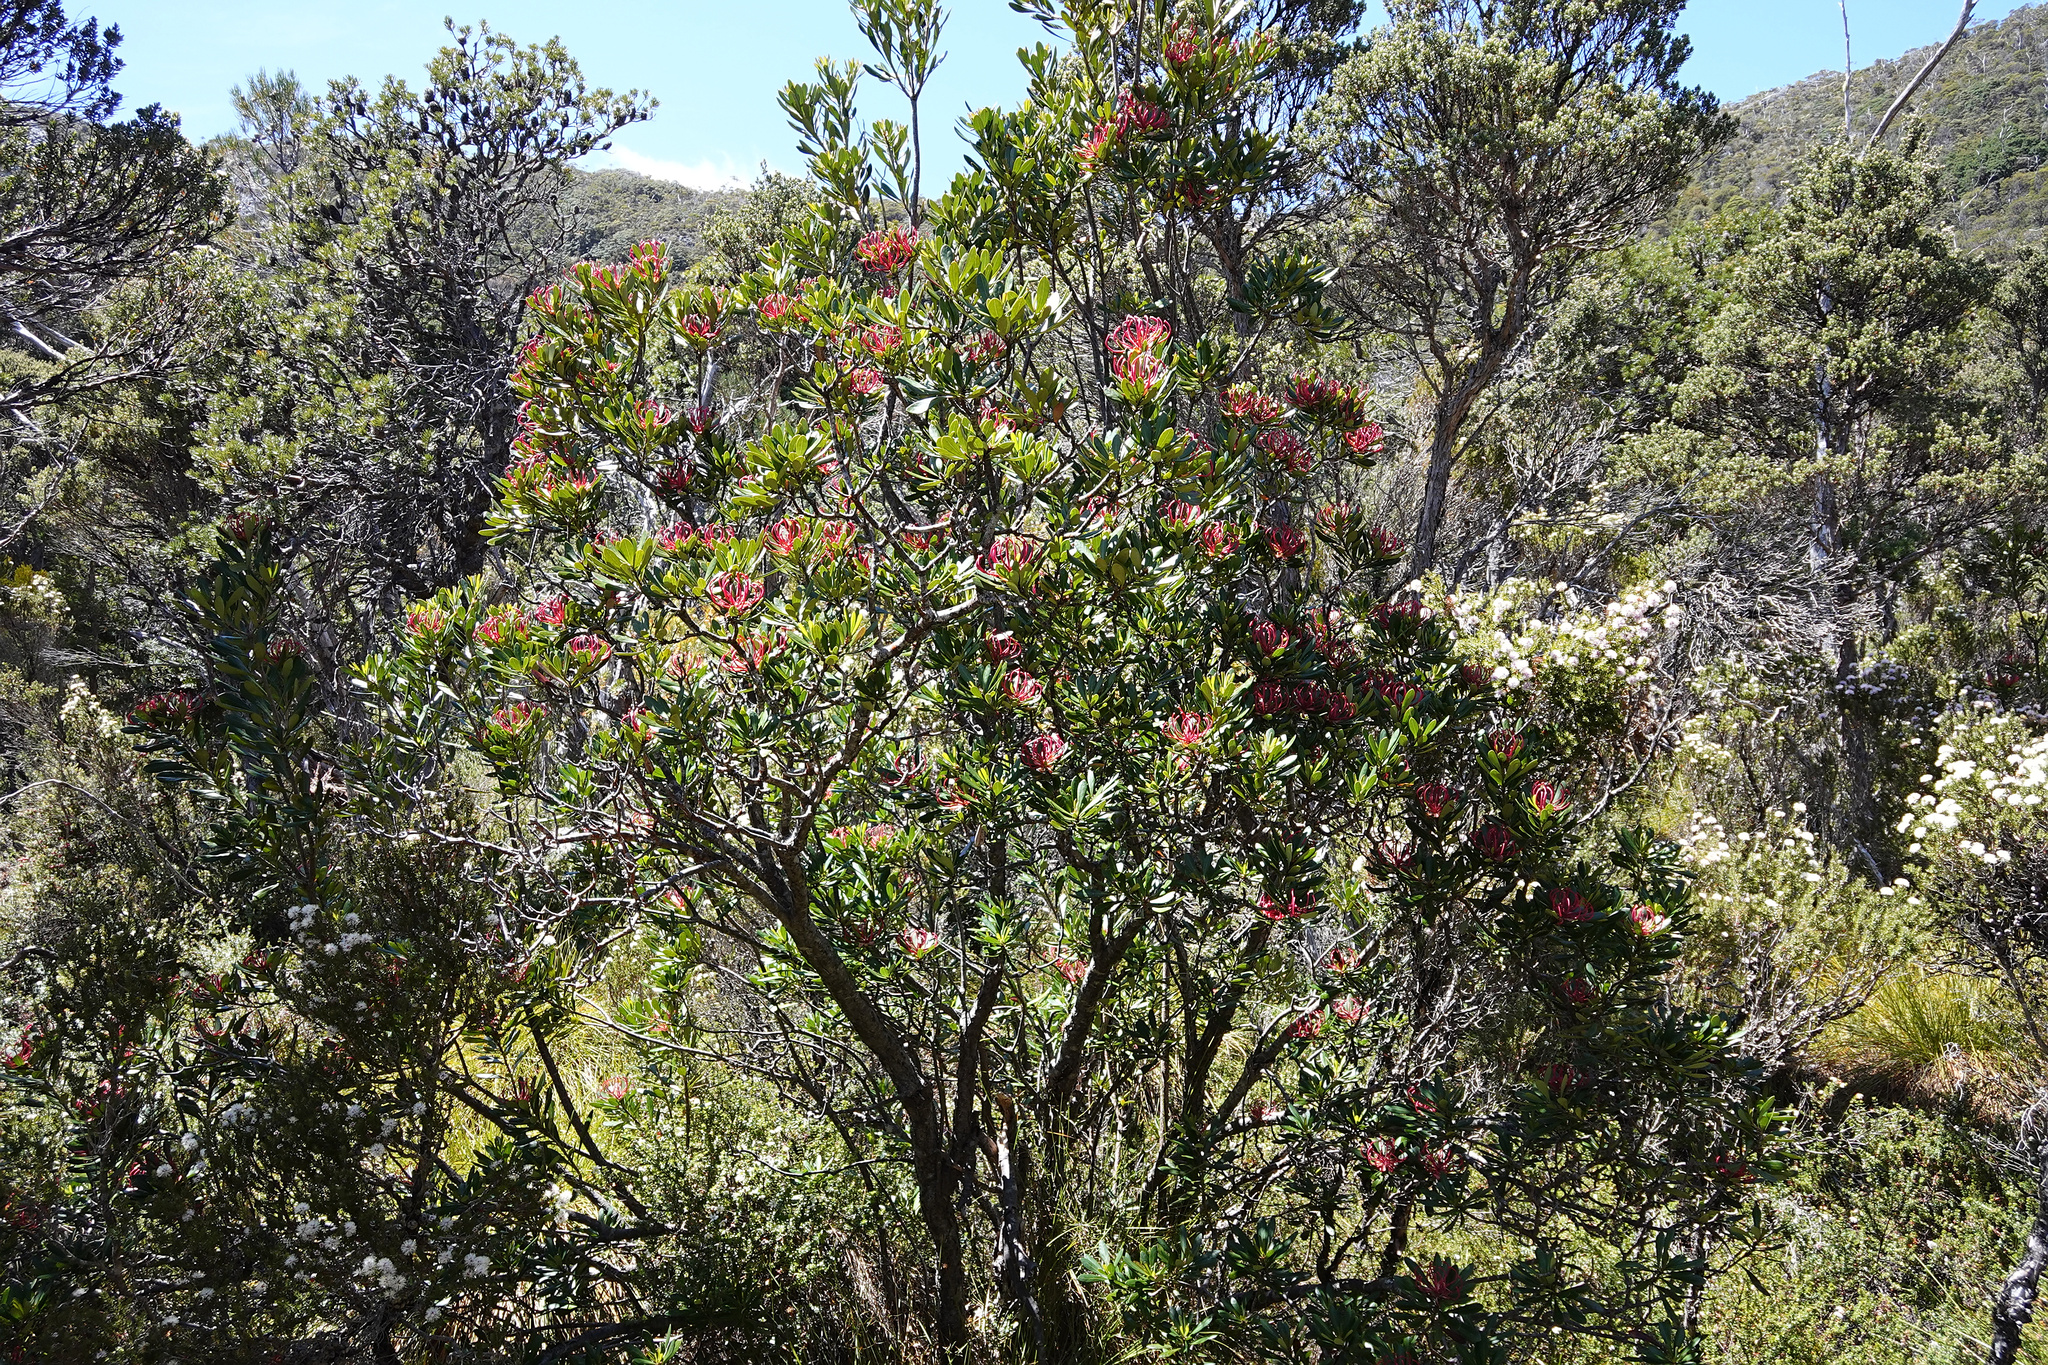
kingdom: Plantae
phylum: Tracheophyta
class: Magnoliopsida
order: Proteales
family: Proteaceae
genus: Telopea
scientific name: Telopea truncata
